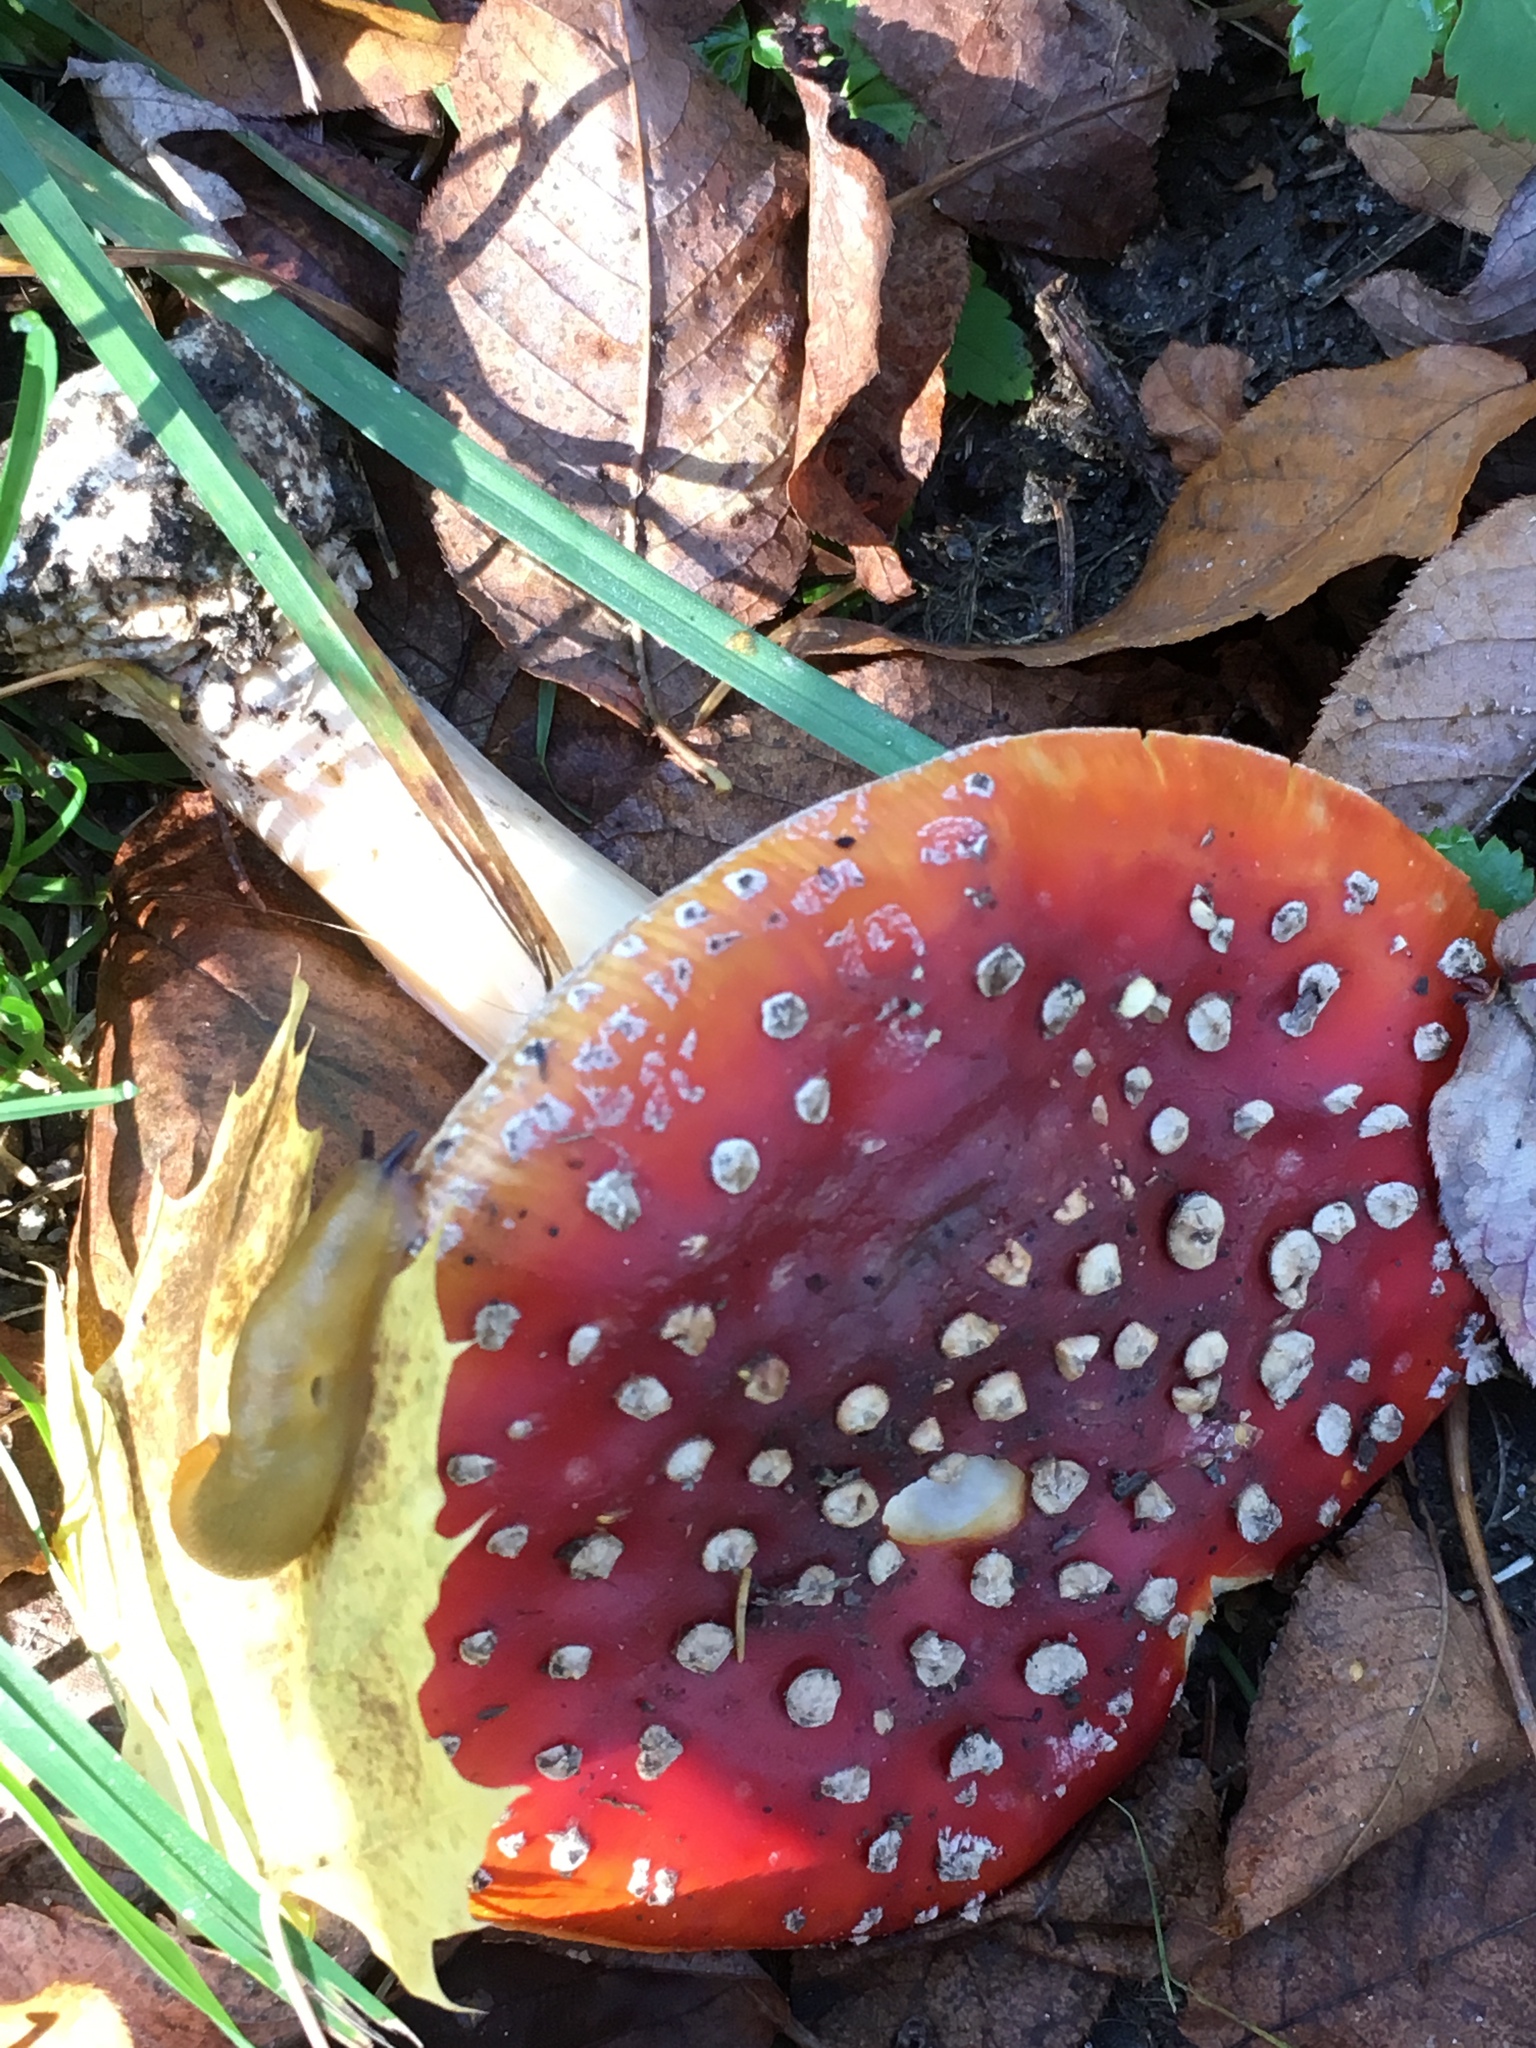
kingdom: Fungi
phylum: Basidiomycota
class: Agaricomycetes
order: Agaricales
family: Amanitaceae
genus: Amanita
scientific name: Amanita muscaria
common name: Fly agaric
